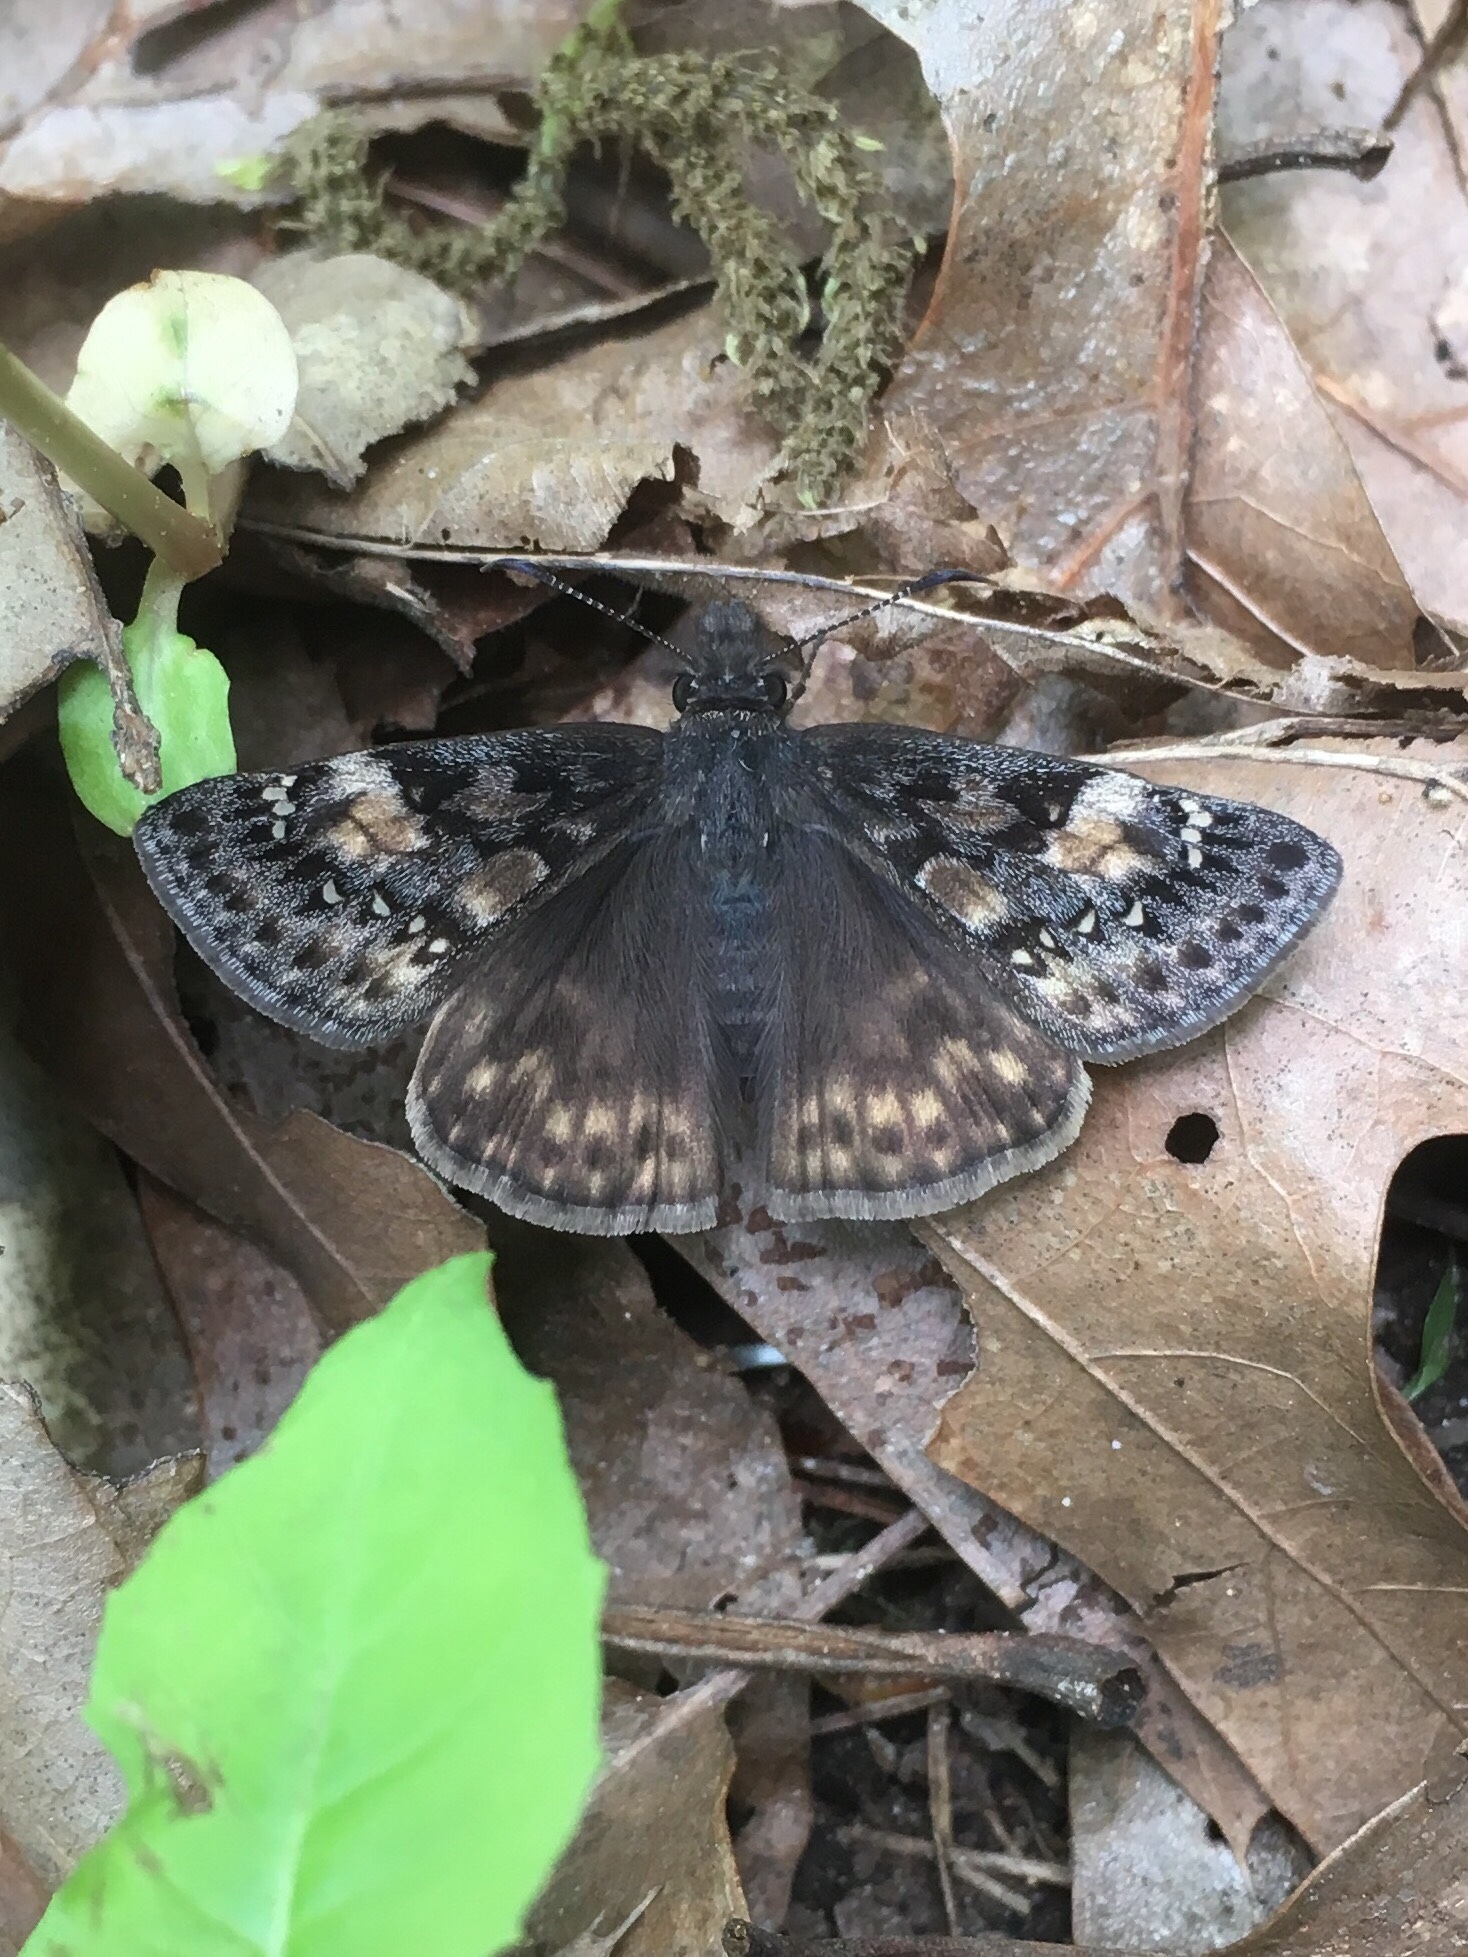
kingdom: Animalia
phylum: Arthropoda
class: Insecta
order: Lepidoptera
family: Hesperiidae
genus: Erynnis
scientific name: Erynnis juvenalis
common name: Juvenal's duskywing
